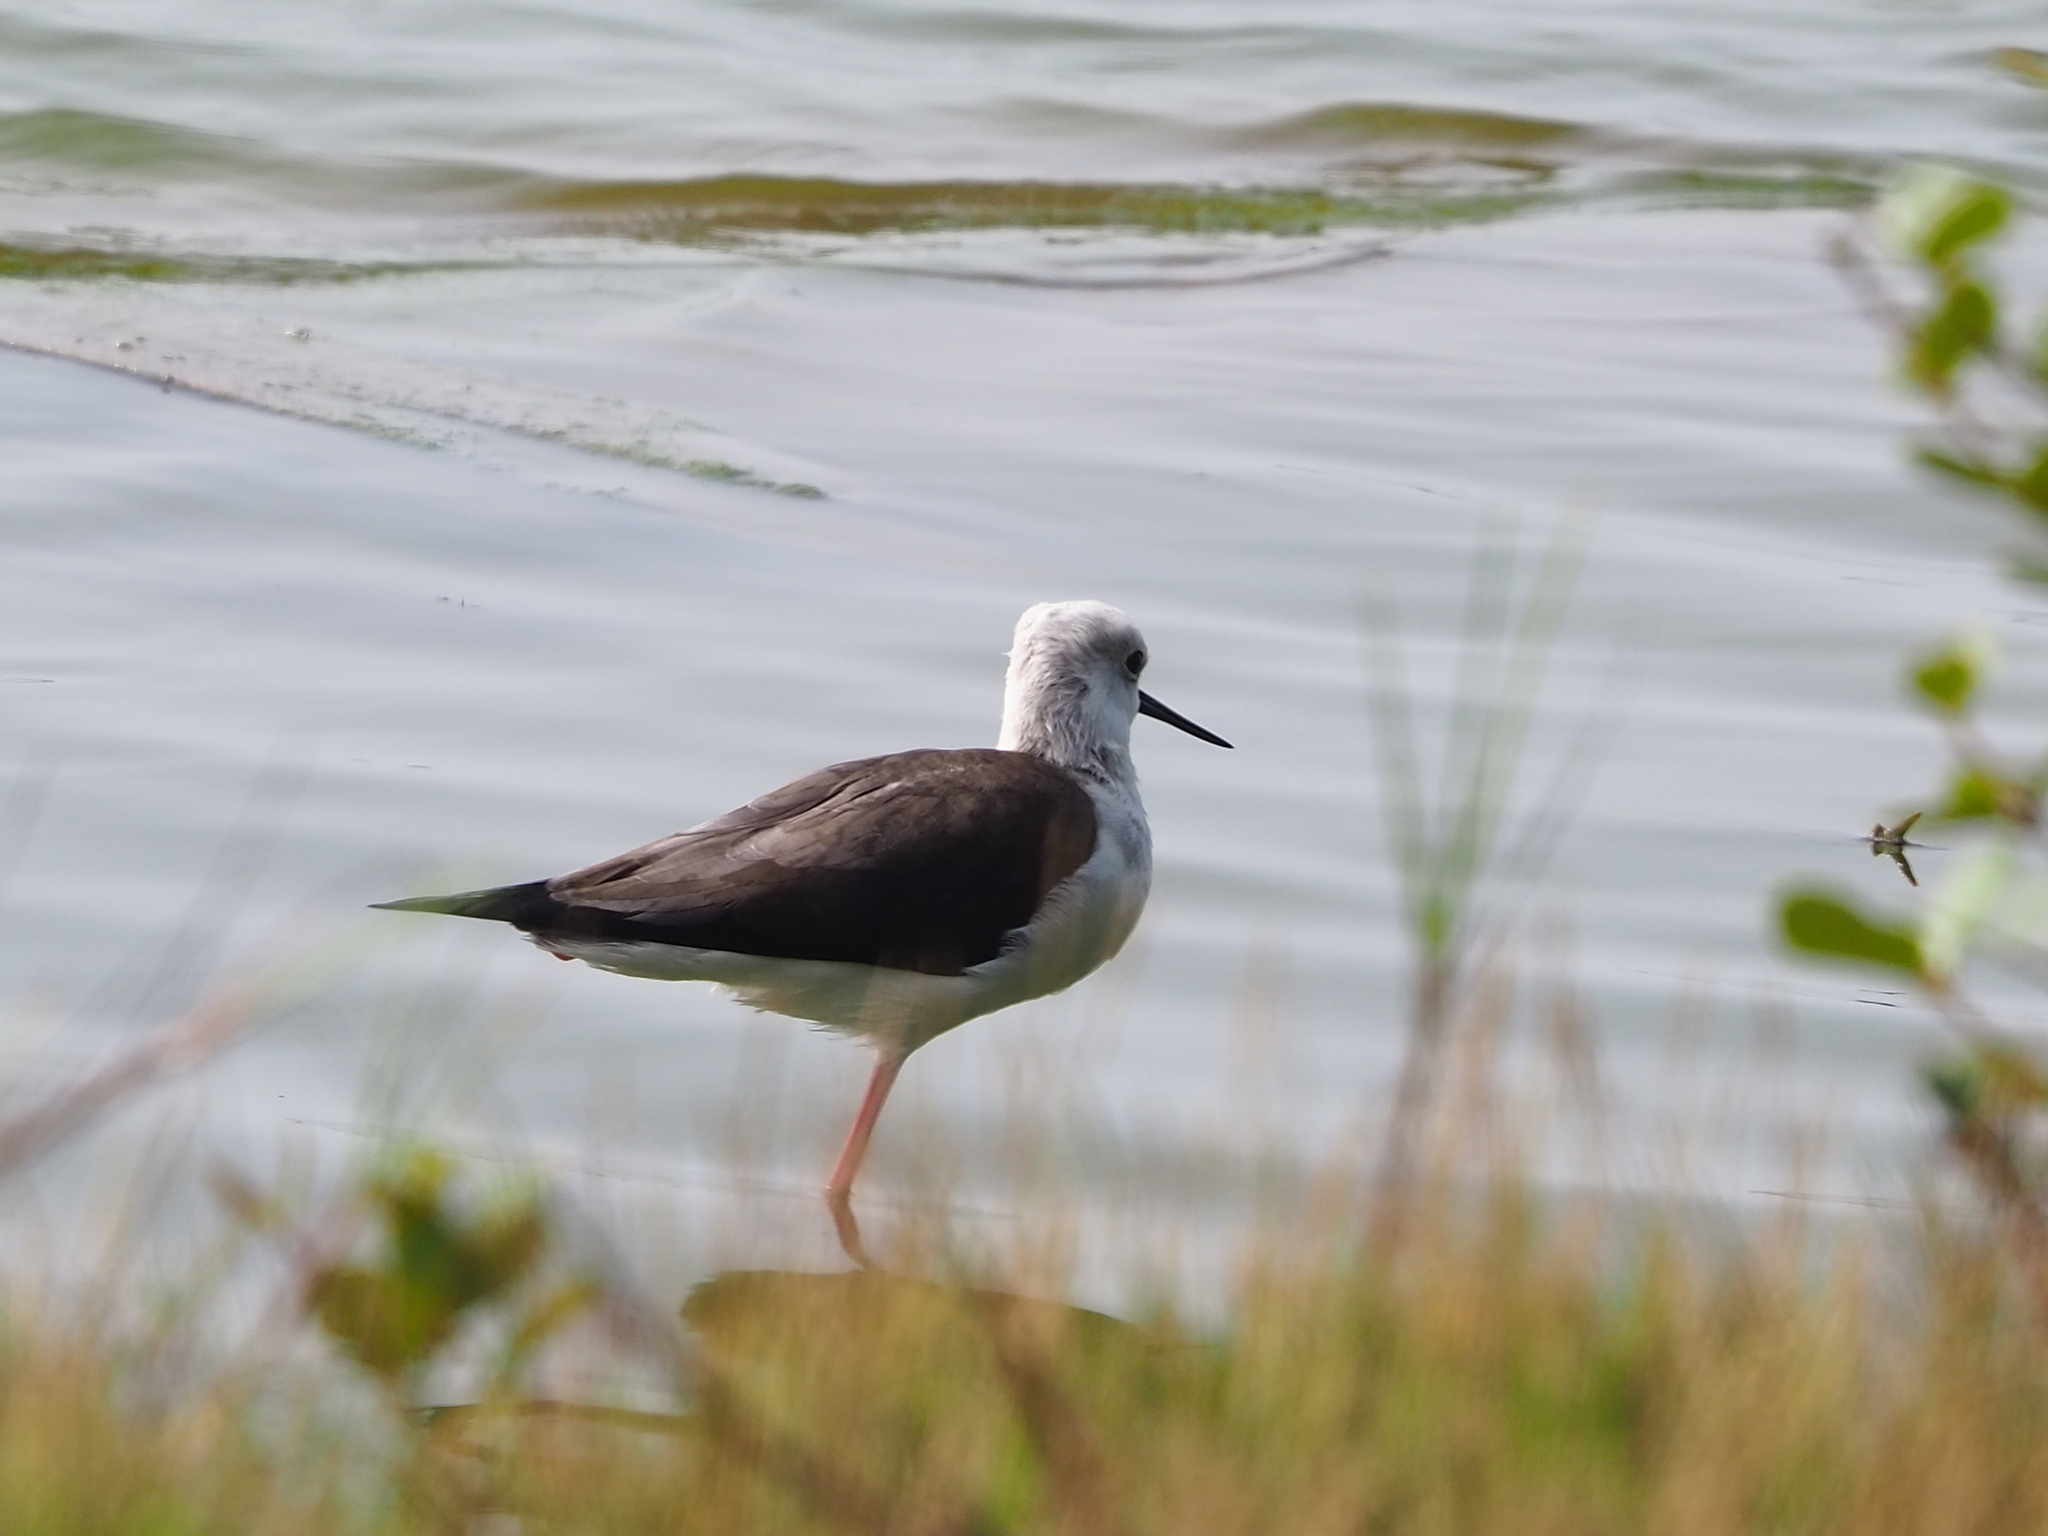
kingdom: Animalia
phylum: Chordata
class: Aves
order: Charadriiformes
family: Recurvirostridae
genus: Himantopus
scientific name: Himantopus himantopus
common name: Black-winged stilt
